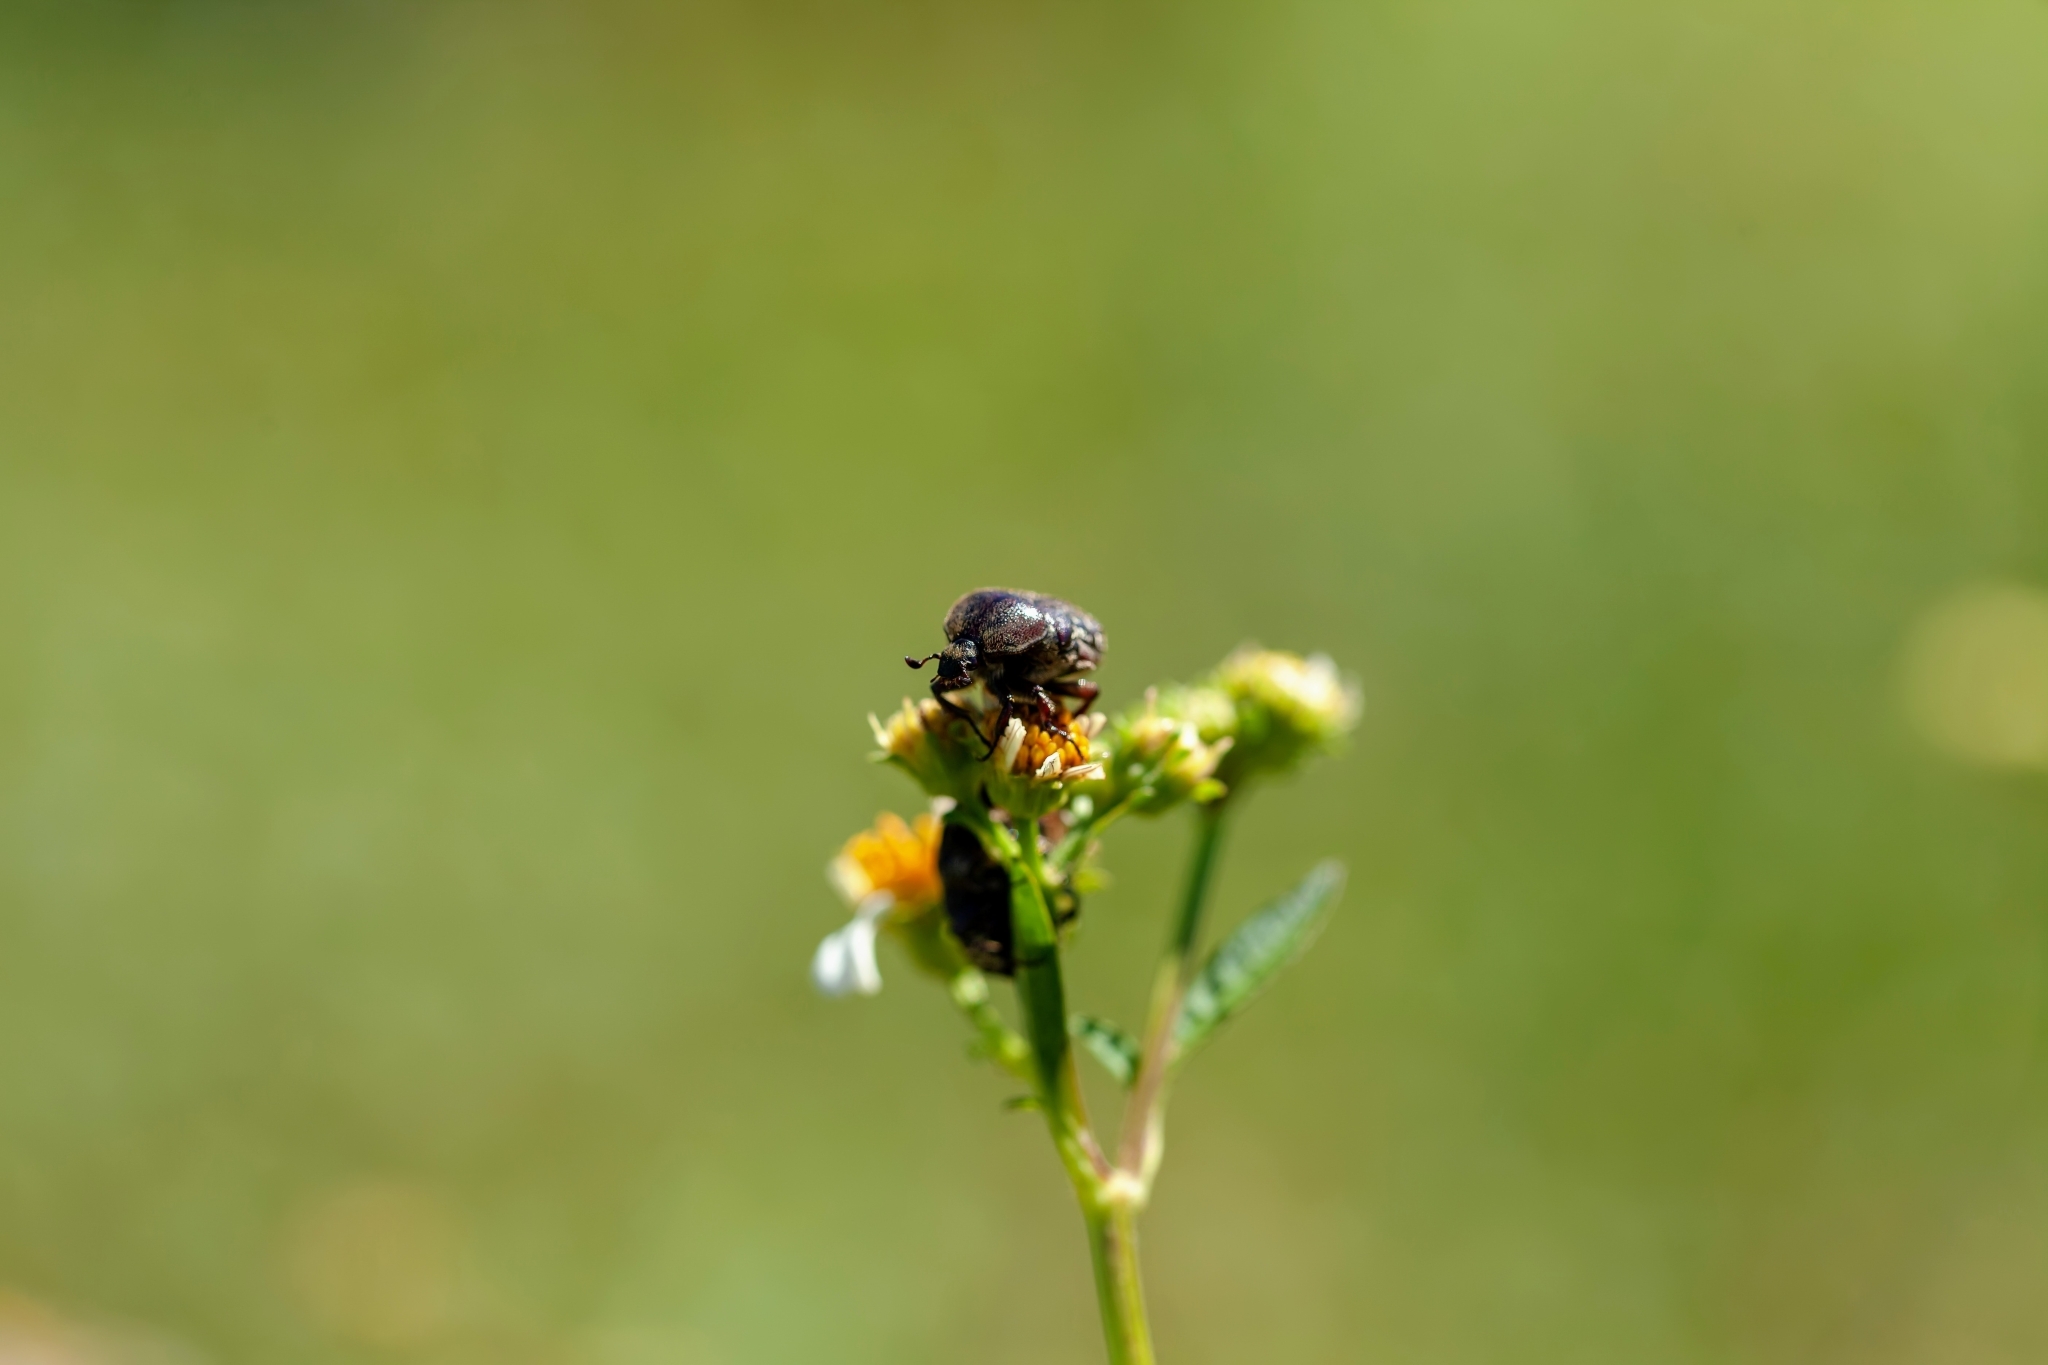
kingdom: Animalia
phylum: Arthropoda
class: Insecta
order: Coleoptera
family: Scarabaeidae
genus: Euphoria
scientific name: Euphoria sepulcralis
